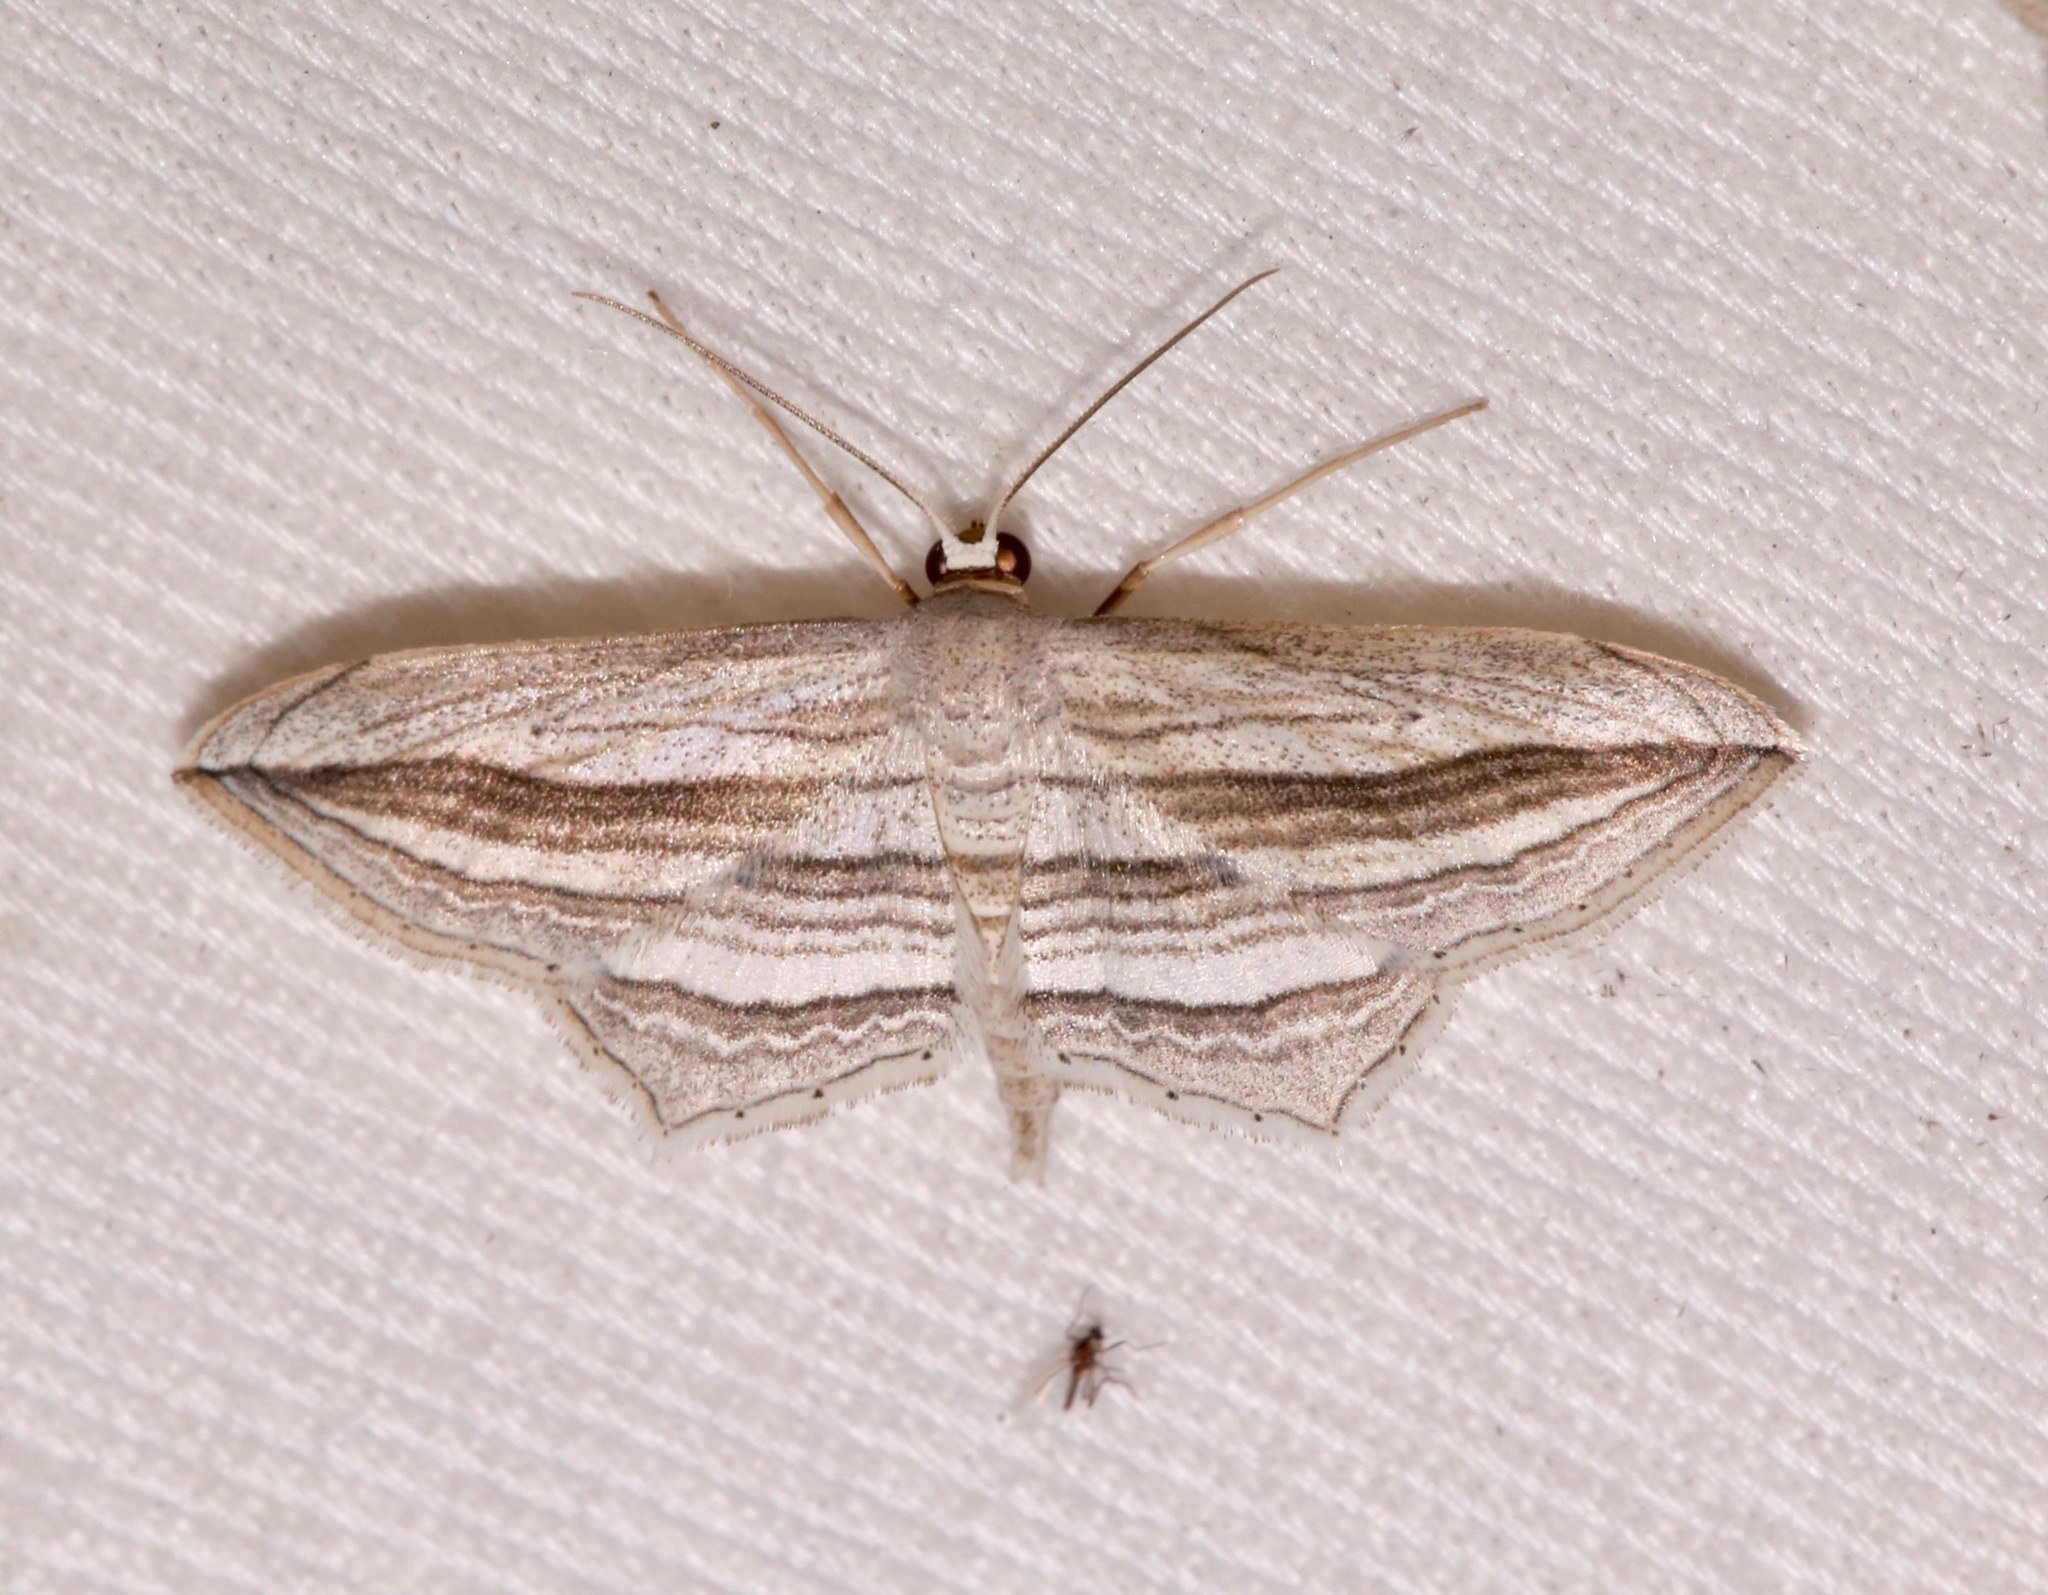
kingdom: Animalia
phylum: Arthropoda
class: Insecta
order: Lepidoptera
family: Geometridae
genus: Arcobara
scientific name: Arcobara multilineata
